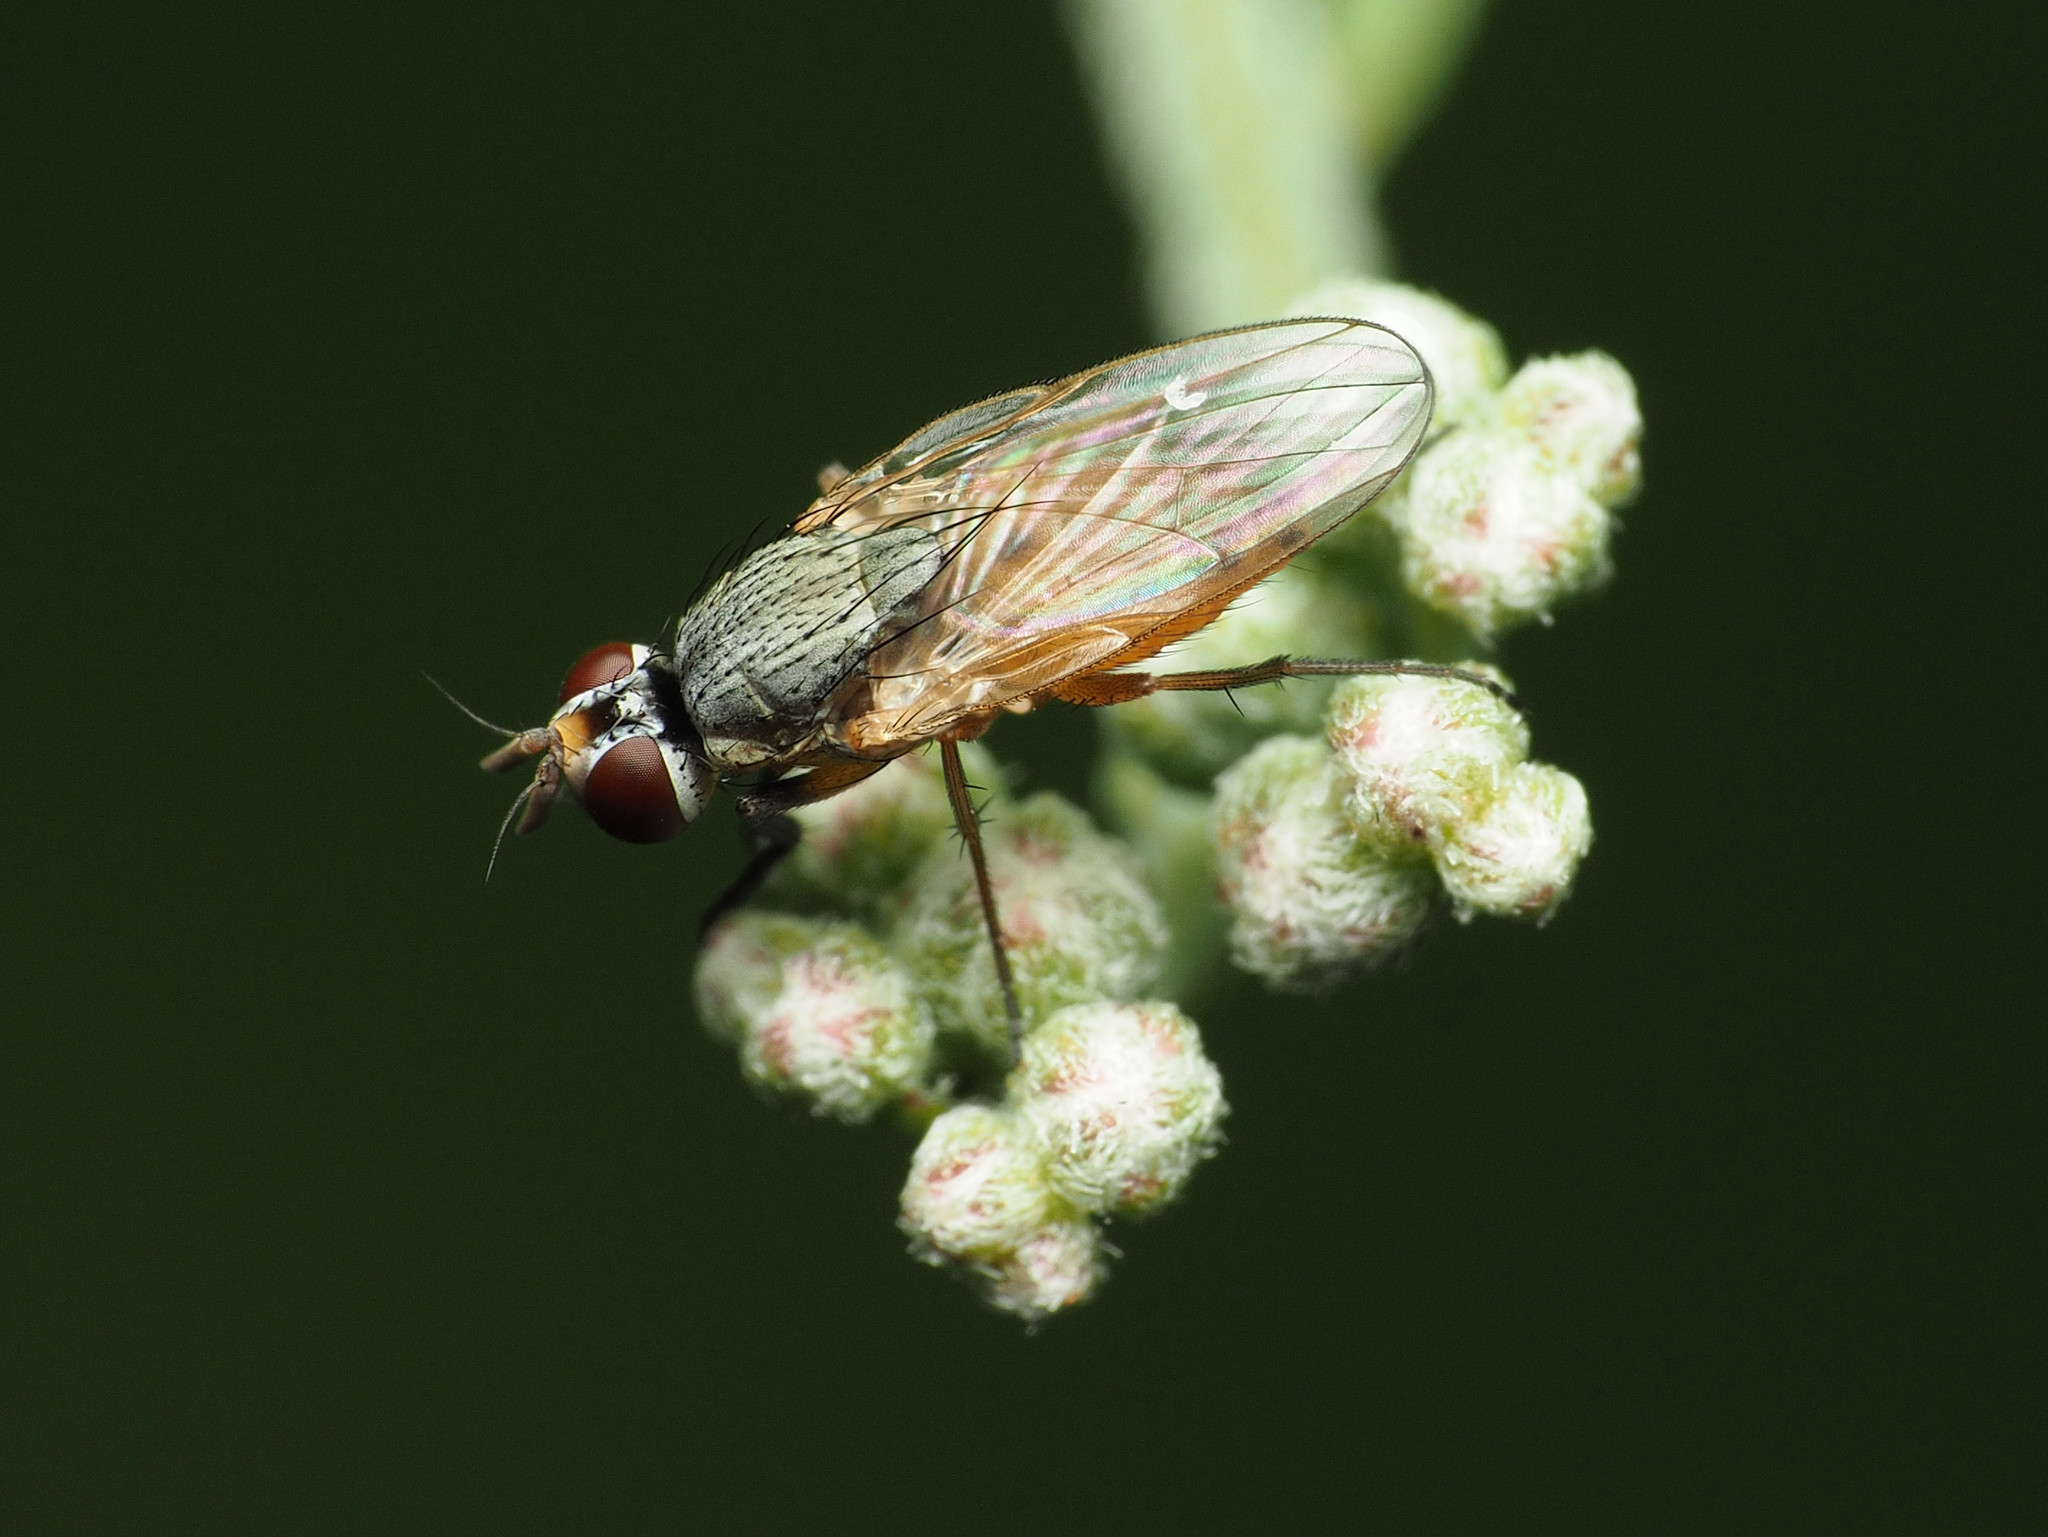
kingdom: Animalia
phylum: Arthropoda
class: Insecta
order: Diptera
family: Muscidae
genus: Atherigona
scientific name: Atherigona reversura
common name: Bermudagrass stem maggot
